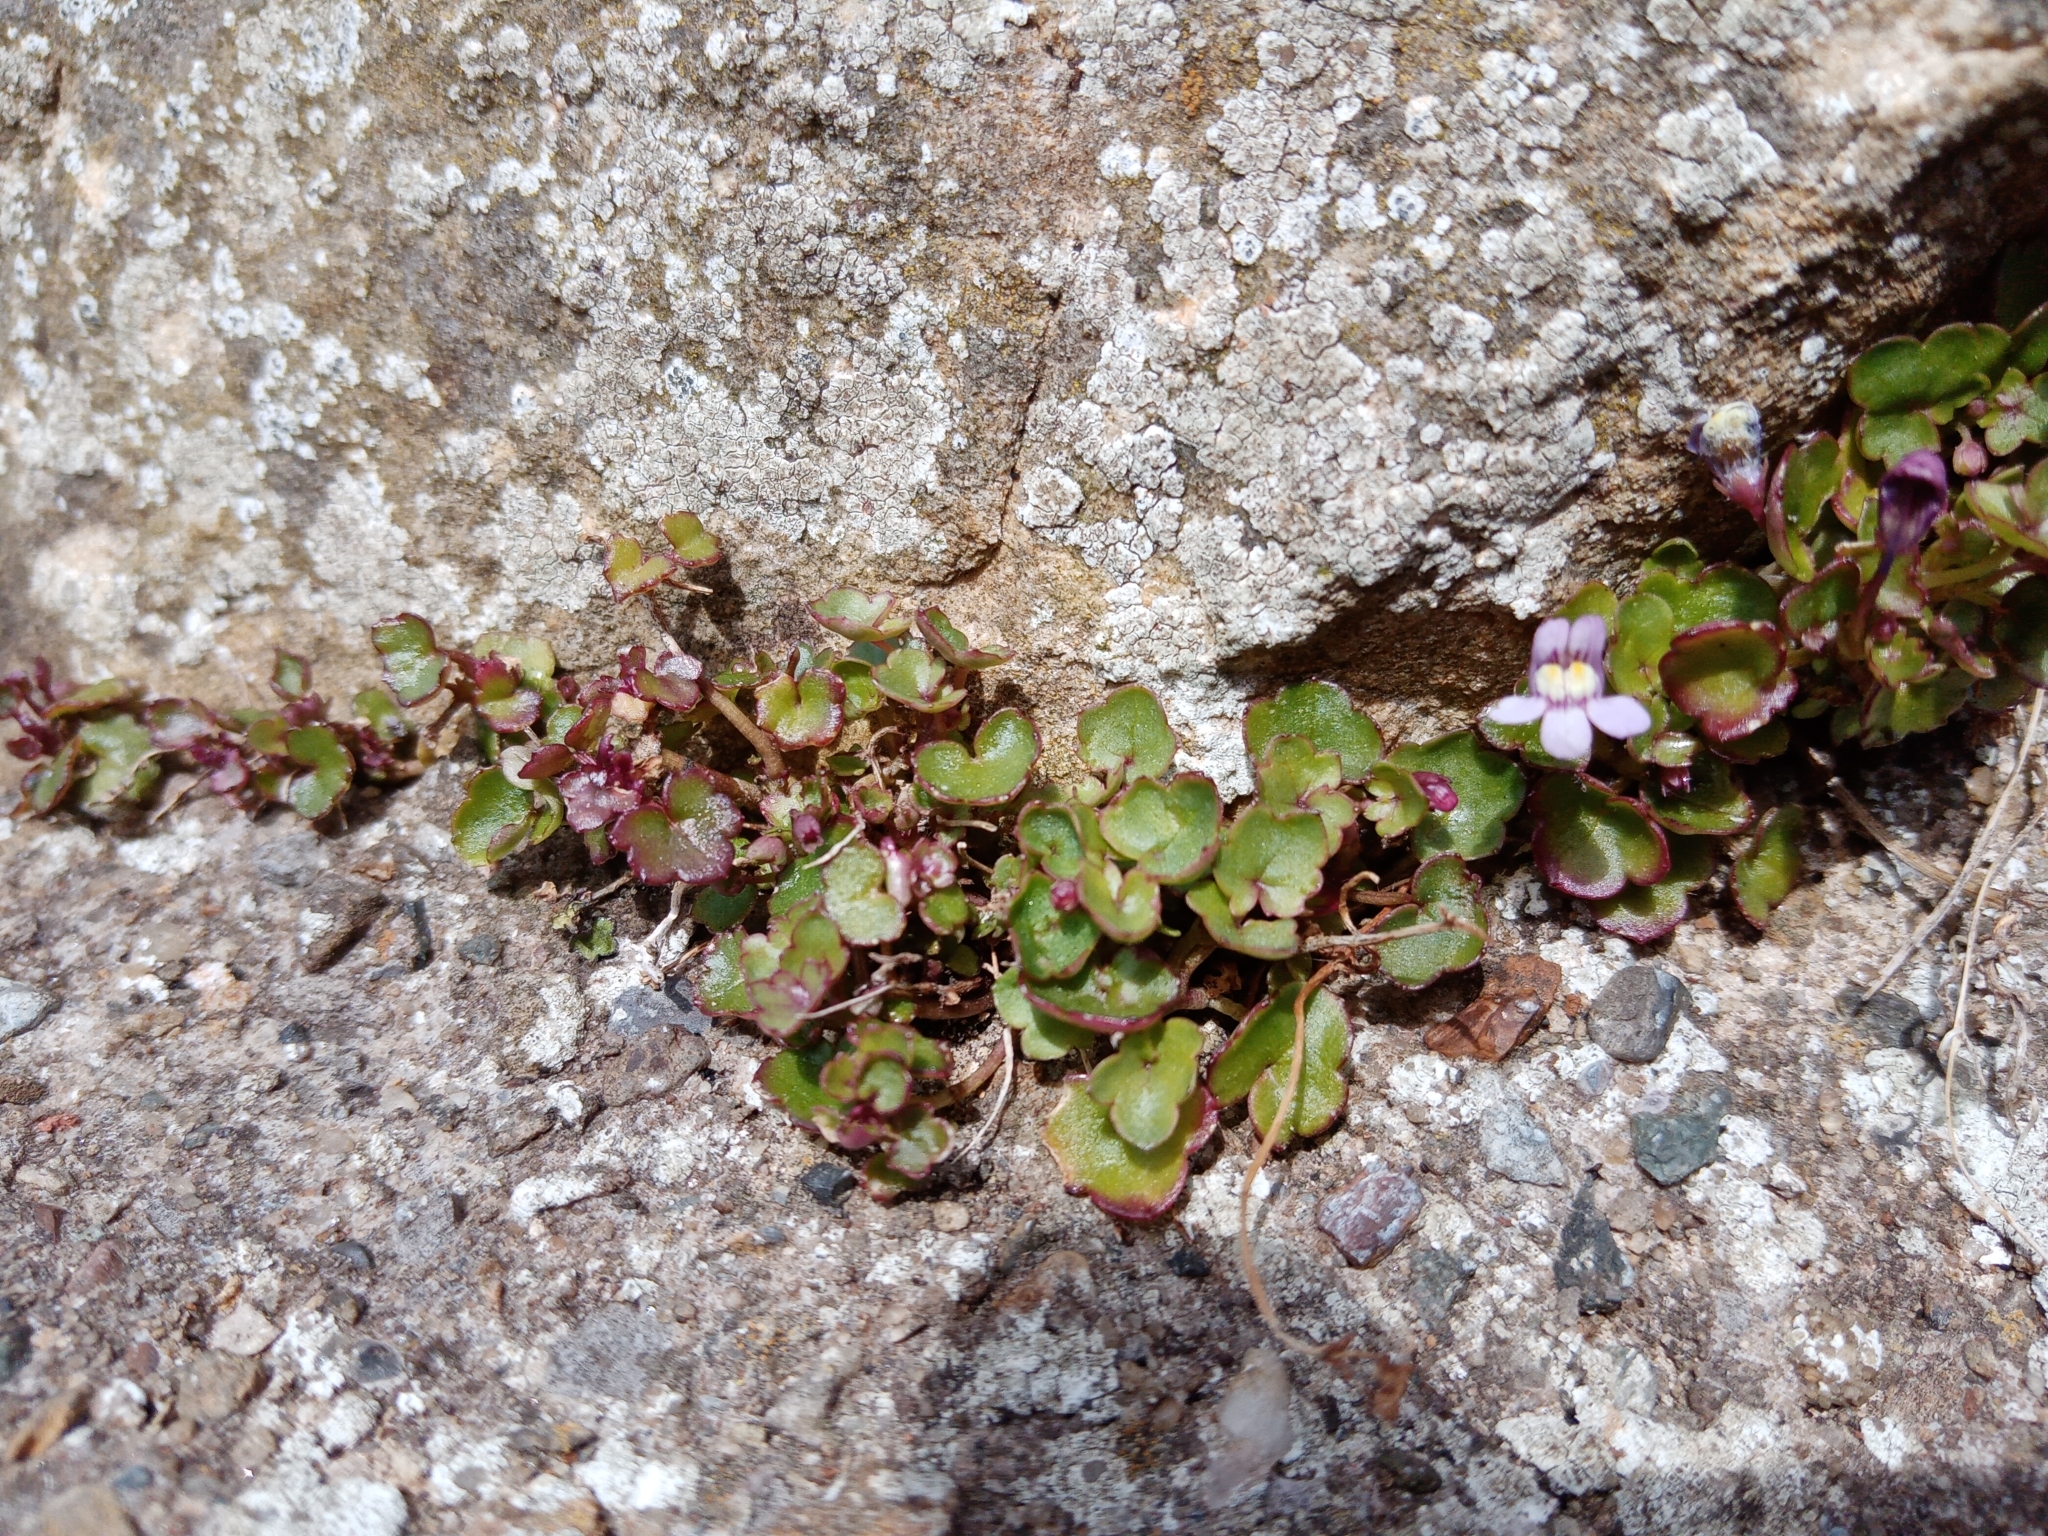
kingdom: Plantae
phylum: Tracheophyta
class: Magnoliopsida
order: Lamiales
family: Plantaginaceae
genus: Cymbalaria
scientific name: Cymbalaria muralis
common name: Ivy-leaved toadflax
